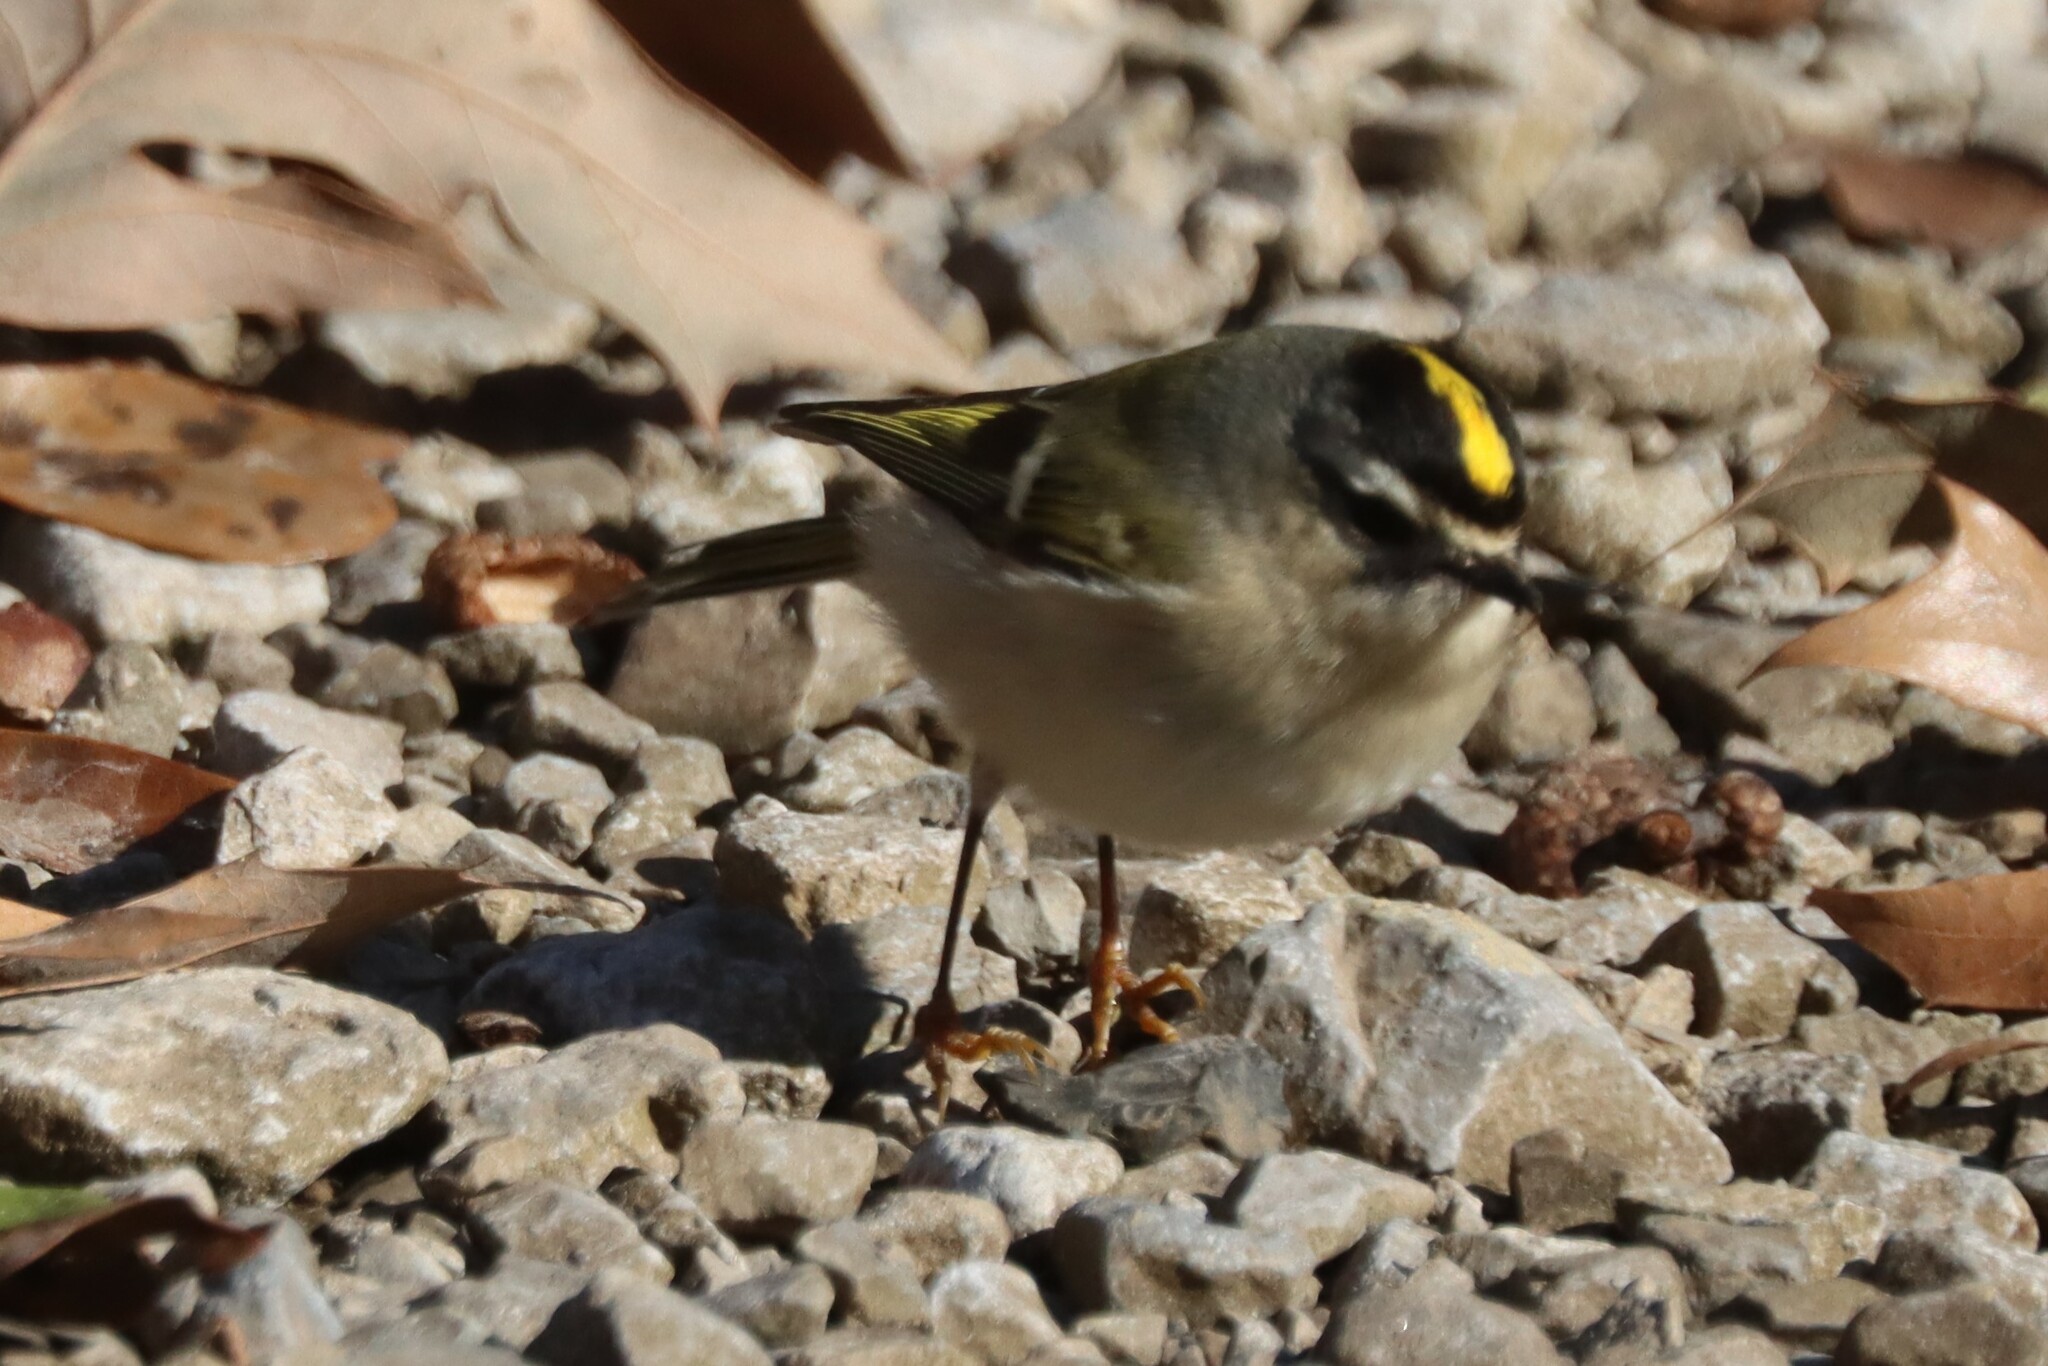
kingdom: Animalia
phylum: Chordata
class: Aves
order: Passeriformes
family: Regulidae
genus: Regulus
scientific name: Regulus satrapa
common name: Golden-crowned kinglet
